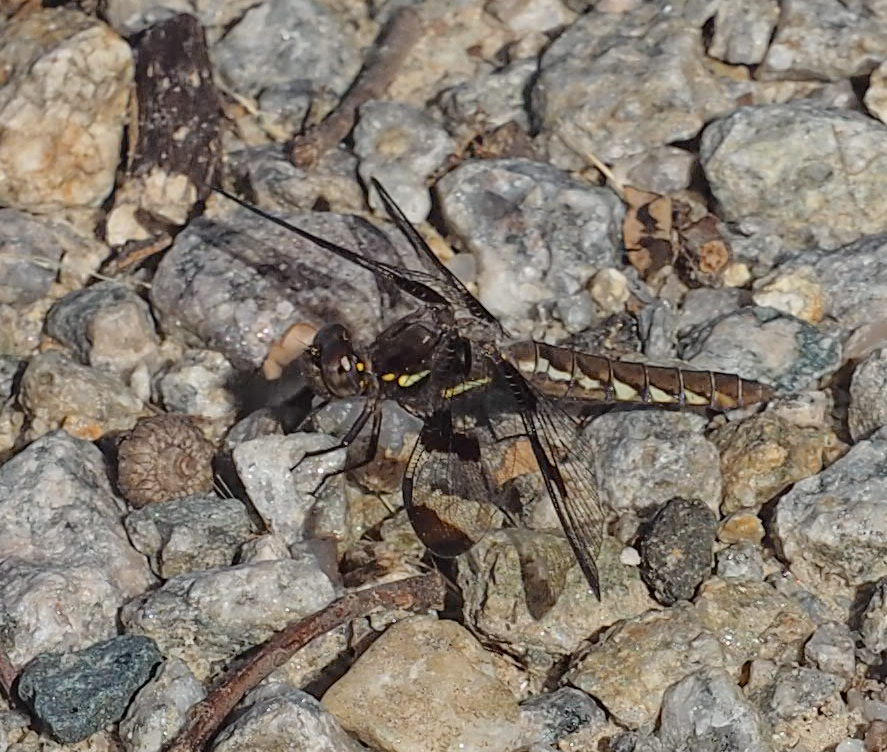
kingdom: Animalia
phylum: Arthropoda
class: Insecta
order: Odonata
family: Libellulidae
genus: Plathemis
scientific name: Plathemis lydia
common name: Common whitetail
